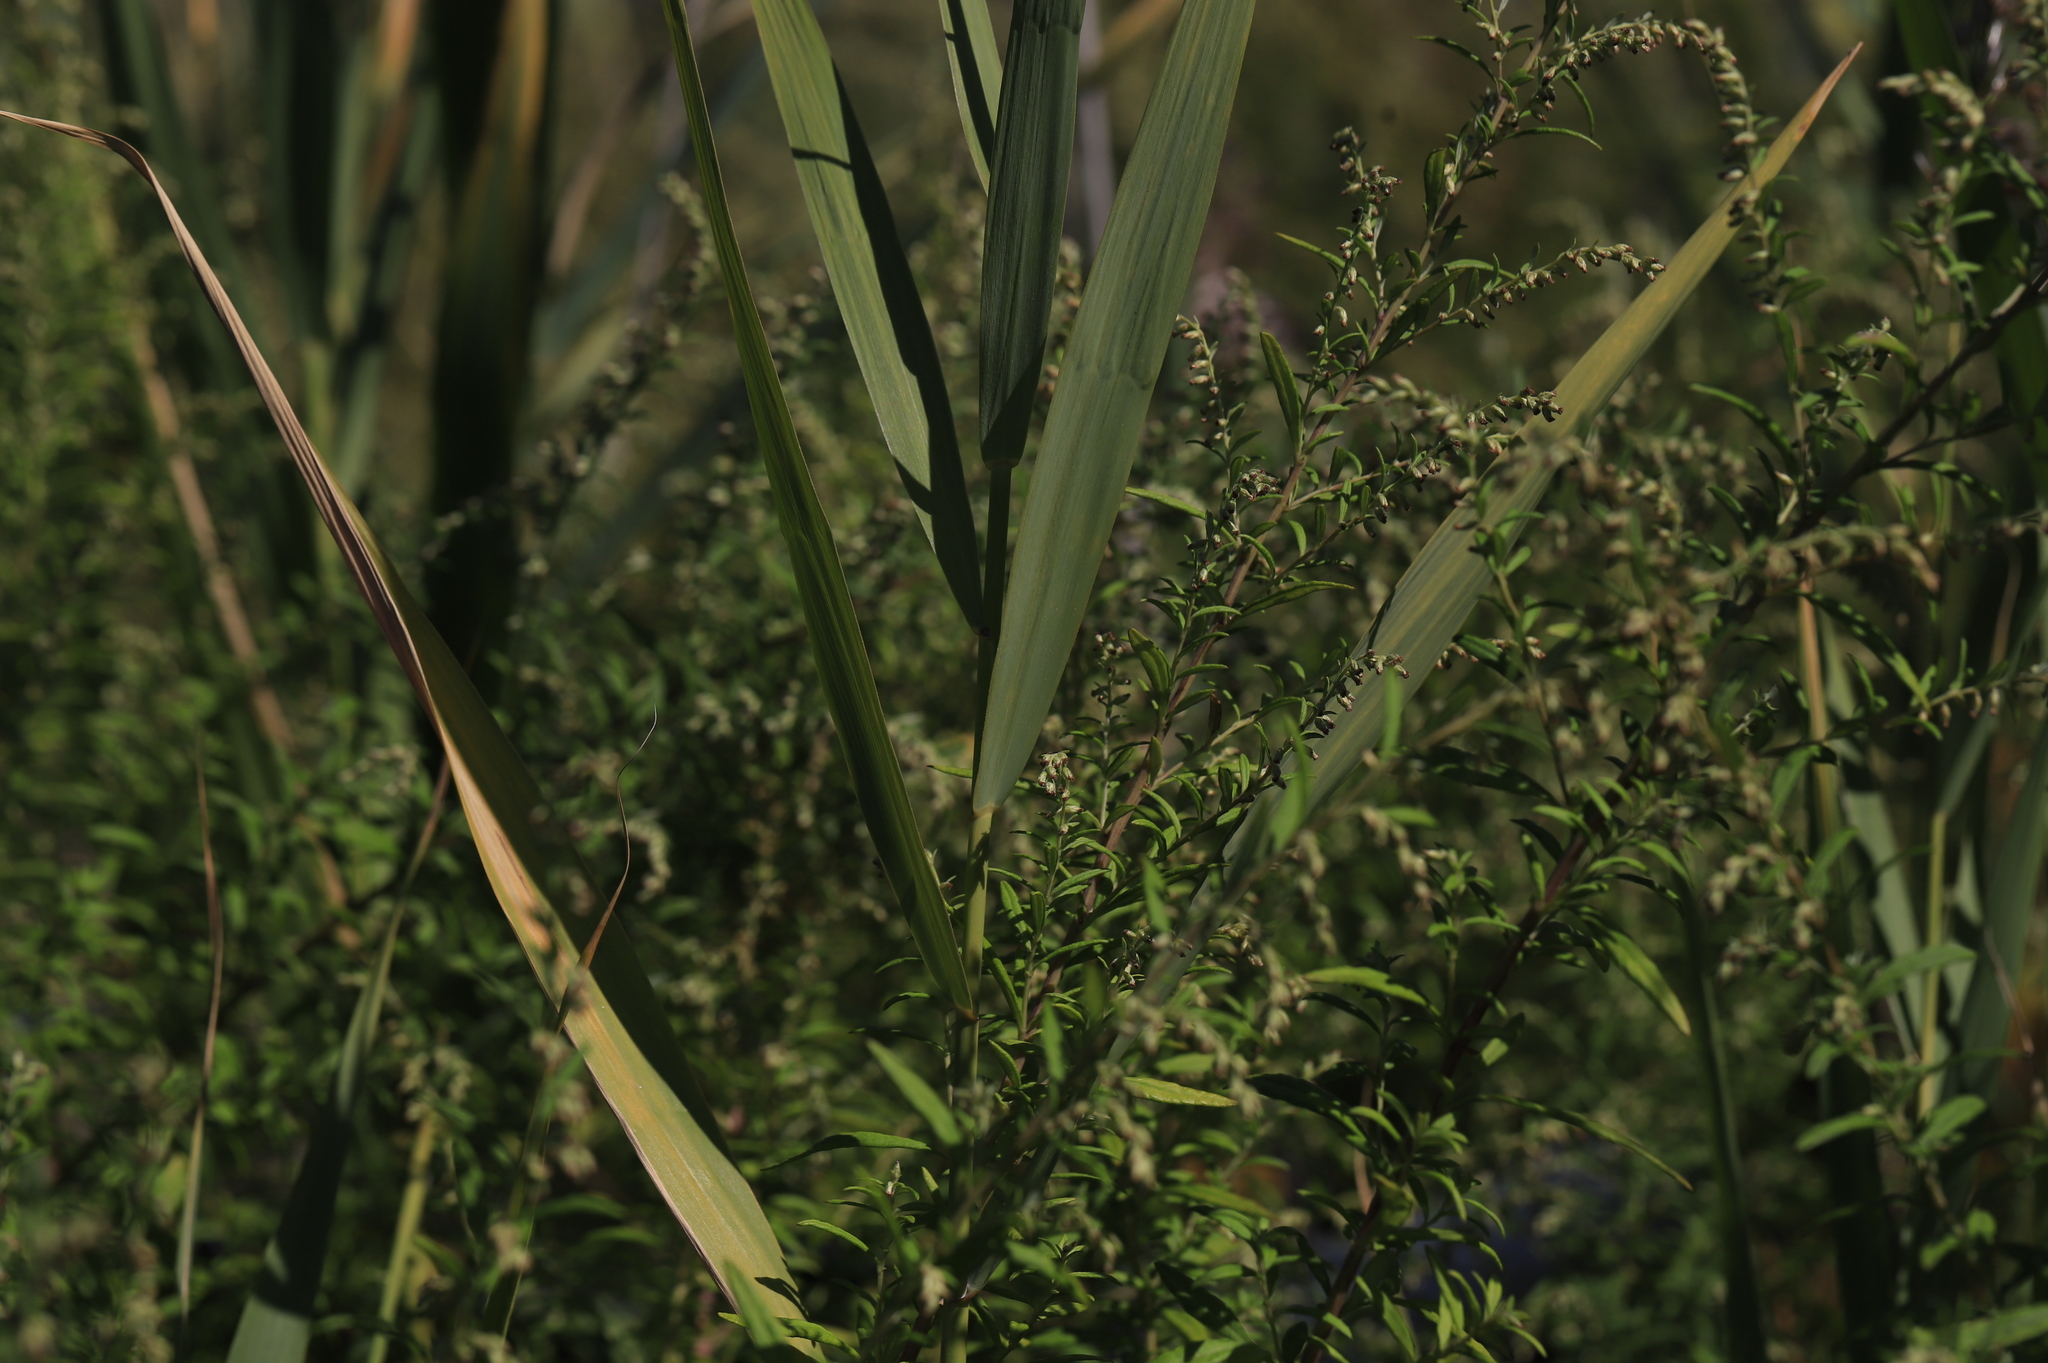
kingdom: Plantae
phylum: Tracheophyta
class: Liliopsida
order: Poales
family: Poaceae
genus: Phragmites
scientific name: Phragmites australis
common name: Common reed
